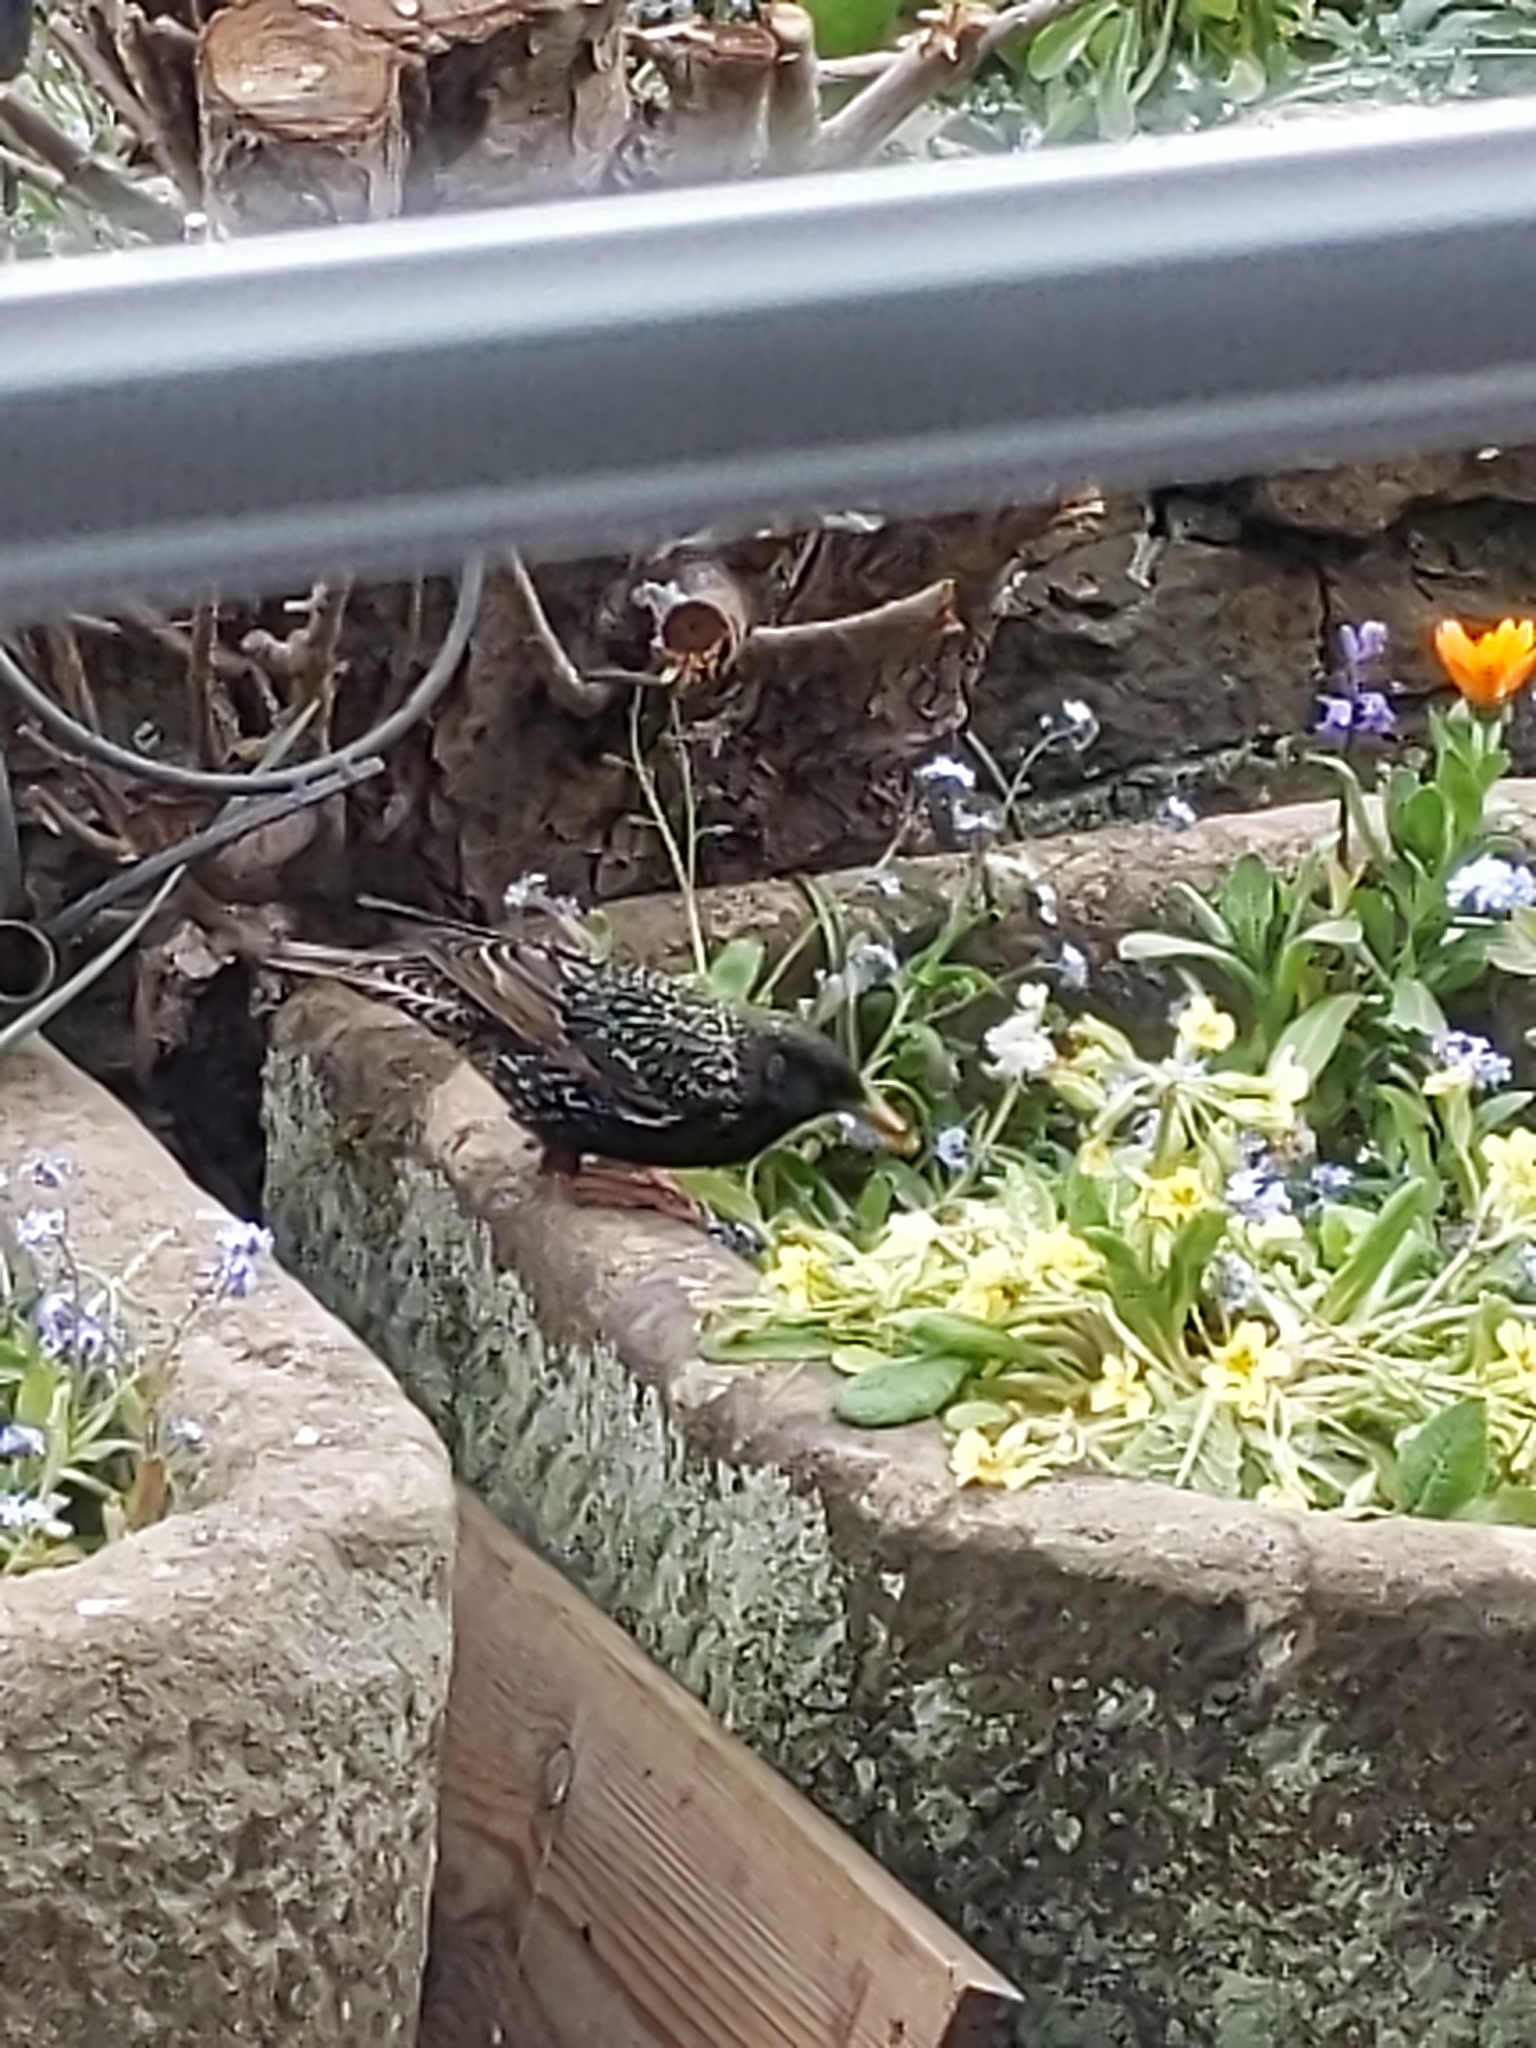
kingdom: Animalia
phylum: Chordata
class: Aves
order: Passeriformes
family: Sturnidae
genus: Sturnus
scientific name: Sturnus vulgaris
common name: Common starling
